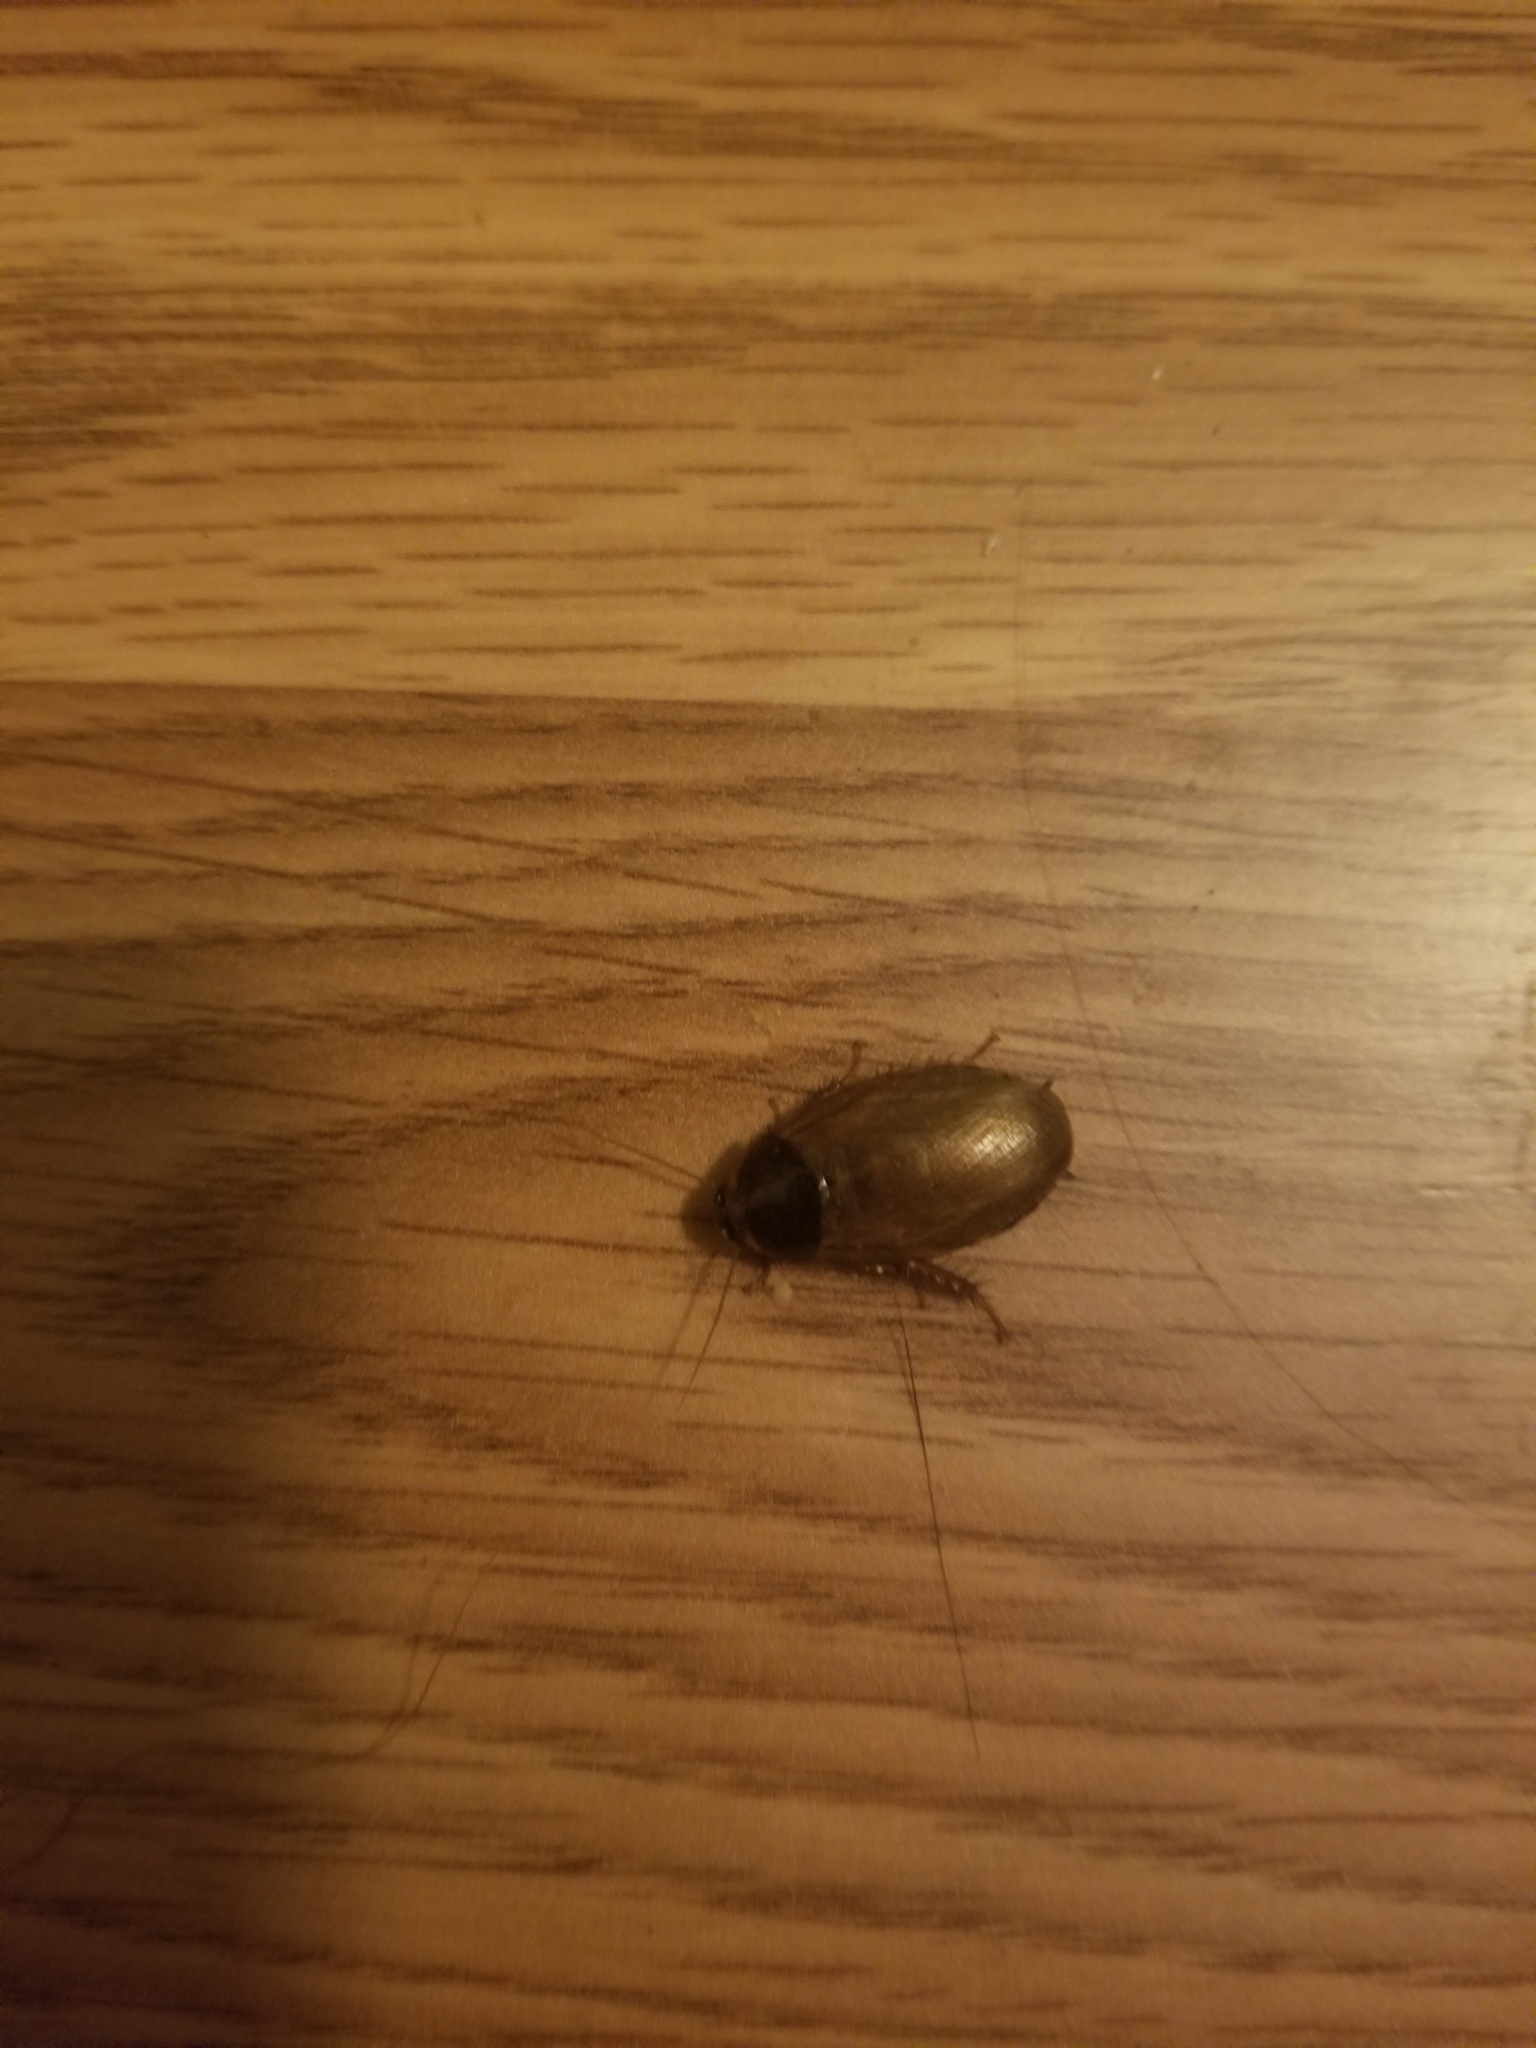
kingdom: Animalia
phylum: Arthropoda
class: Insecta
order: Blattodea
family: Blaberidae
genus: Pycnoscelus
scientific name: Pycnoscelus surinamensis
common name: Surinam cockroach
